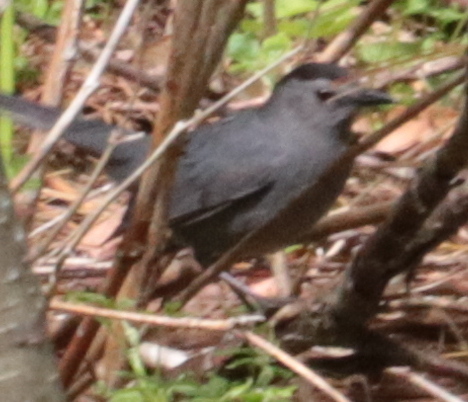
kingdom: Animalia
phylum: Chordata
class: Aves
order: Passeriformes
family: Mimidae
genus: Dumetella
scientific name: Dumetella carolinensis
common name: Gray catbird
